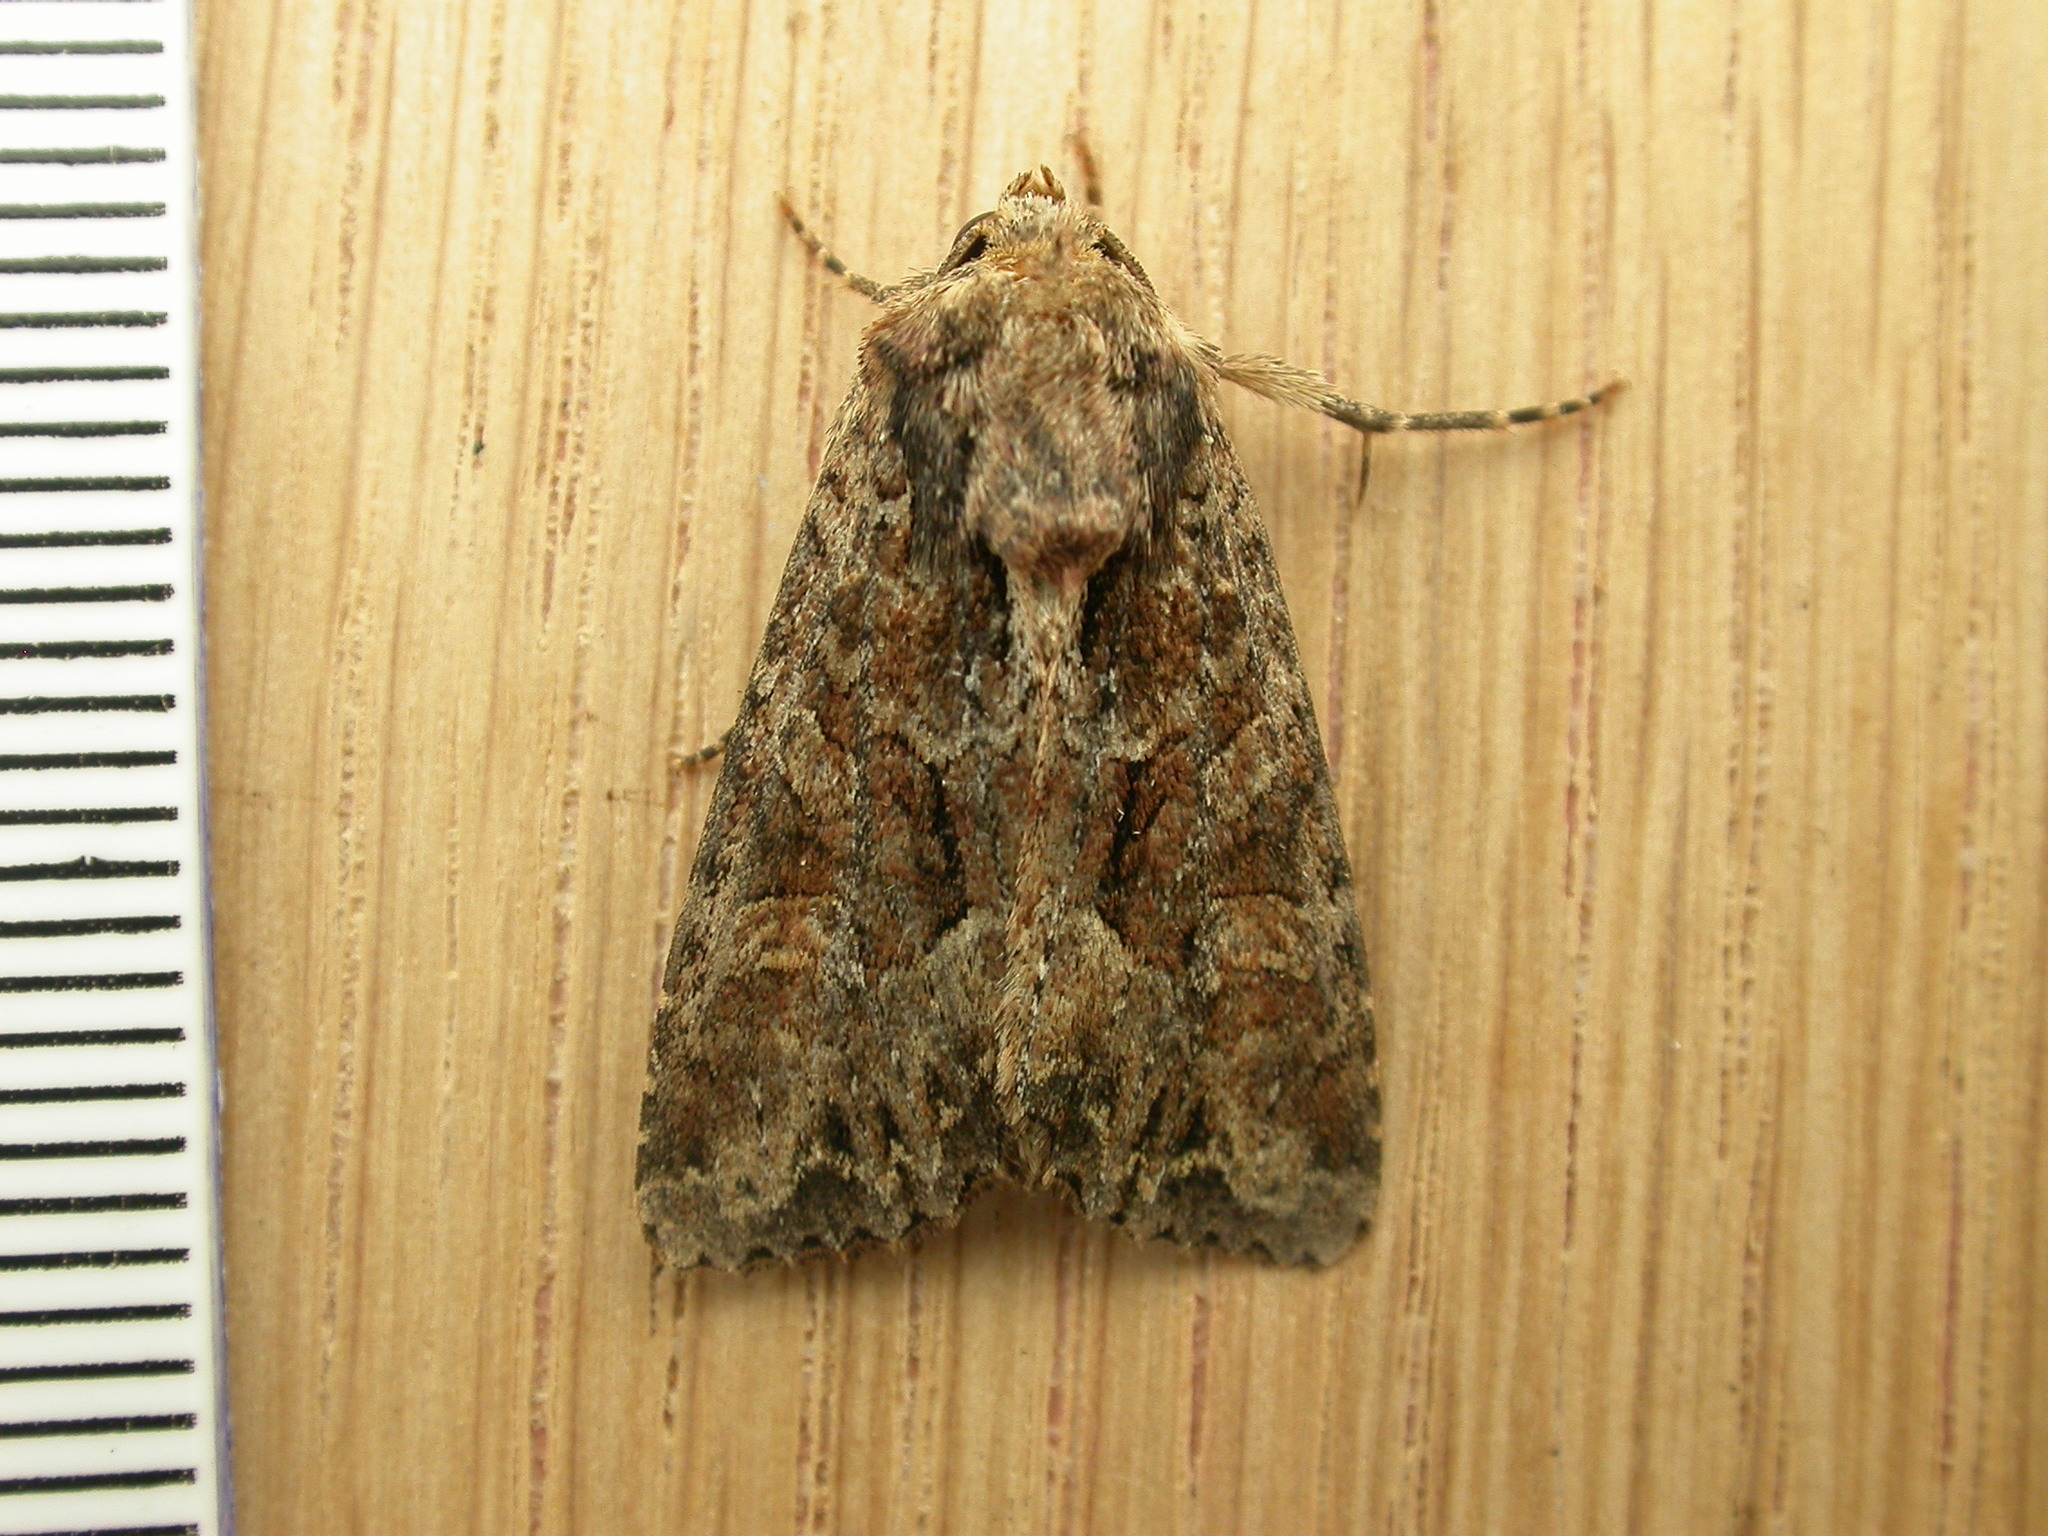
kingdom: Animalia
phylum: Arthropoda
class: Insecta
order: Lepidoptera
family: Noctuidae
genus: Apamea
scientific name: Apamea remissa
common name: Dusky brocade
